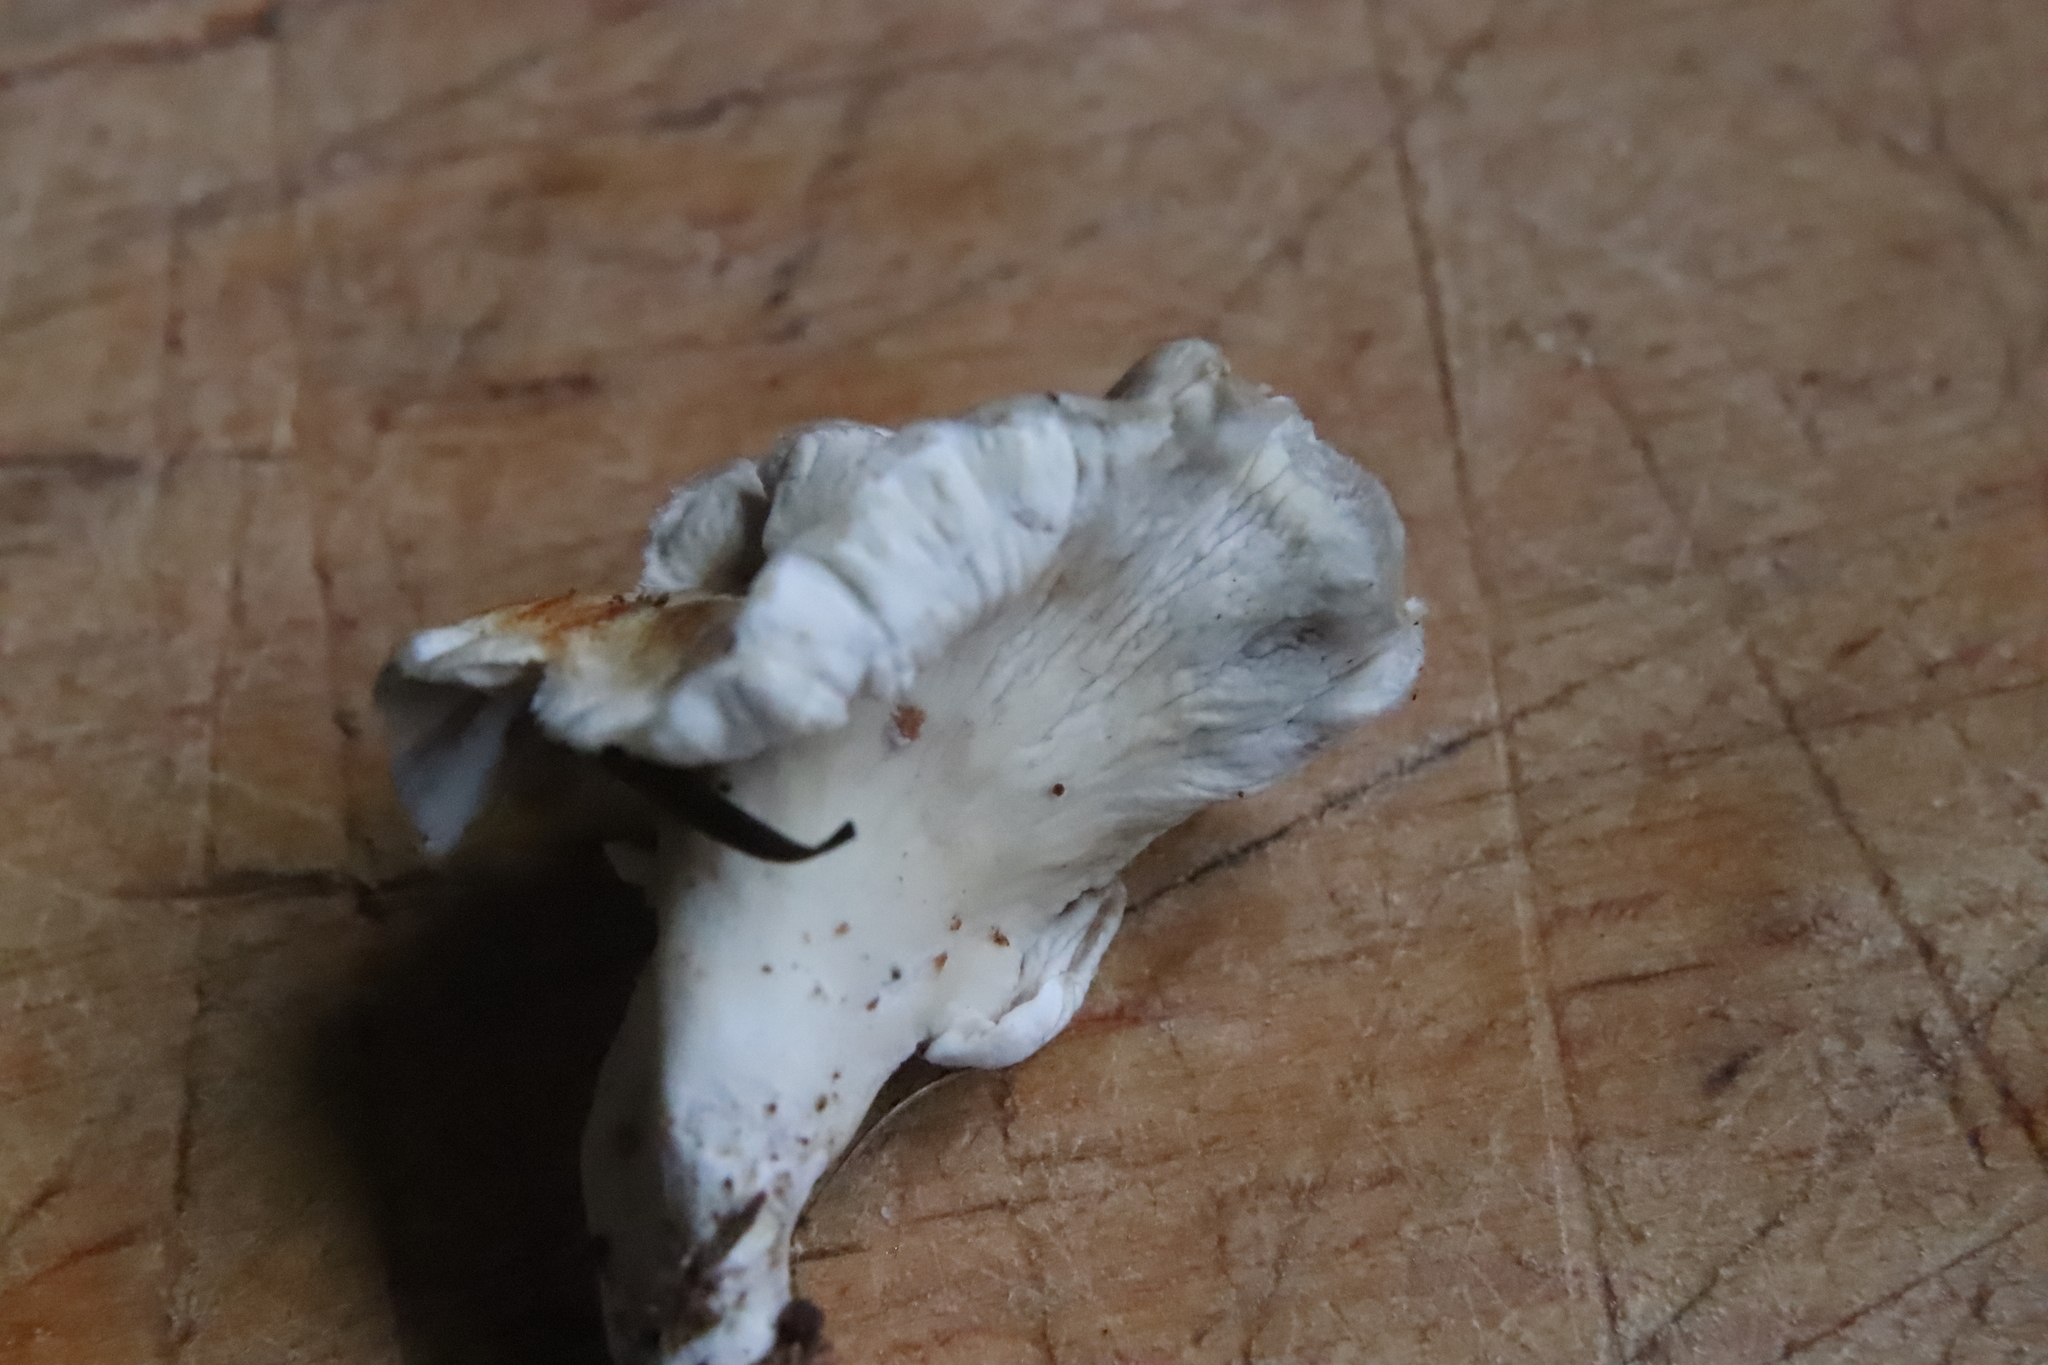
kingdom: Fungi
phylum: Basidiomycota
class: Agaricomycetes
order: Amylocorticiales
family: Amylocorticiaceae
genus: Podoserpula
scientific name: Podoserpula
